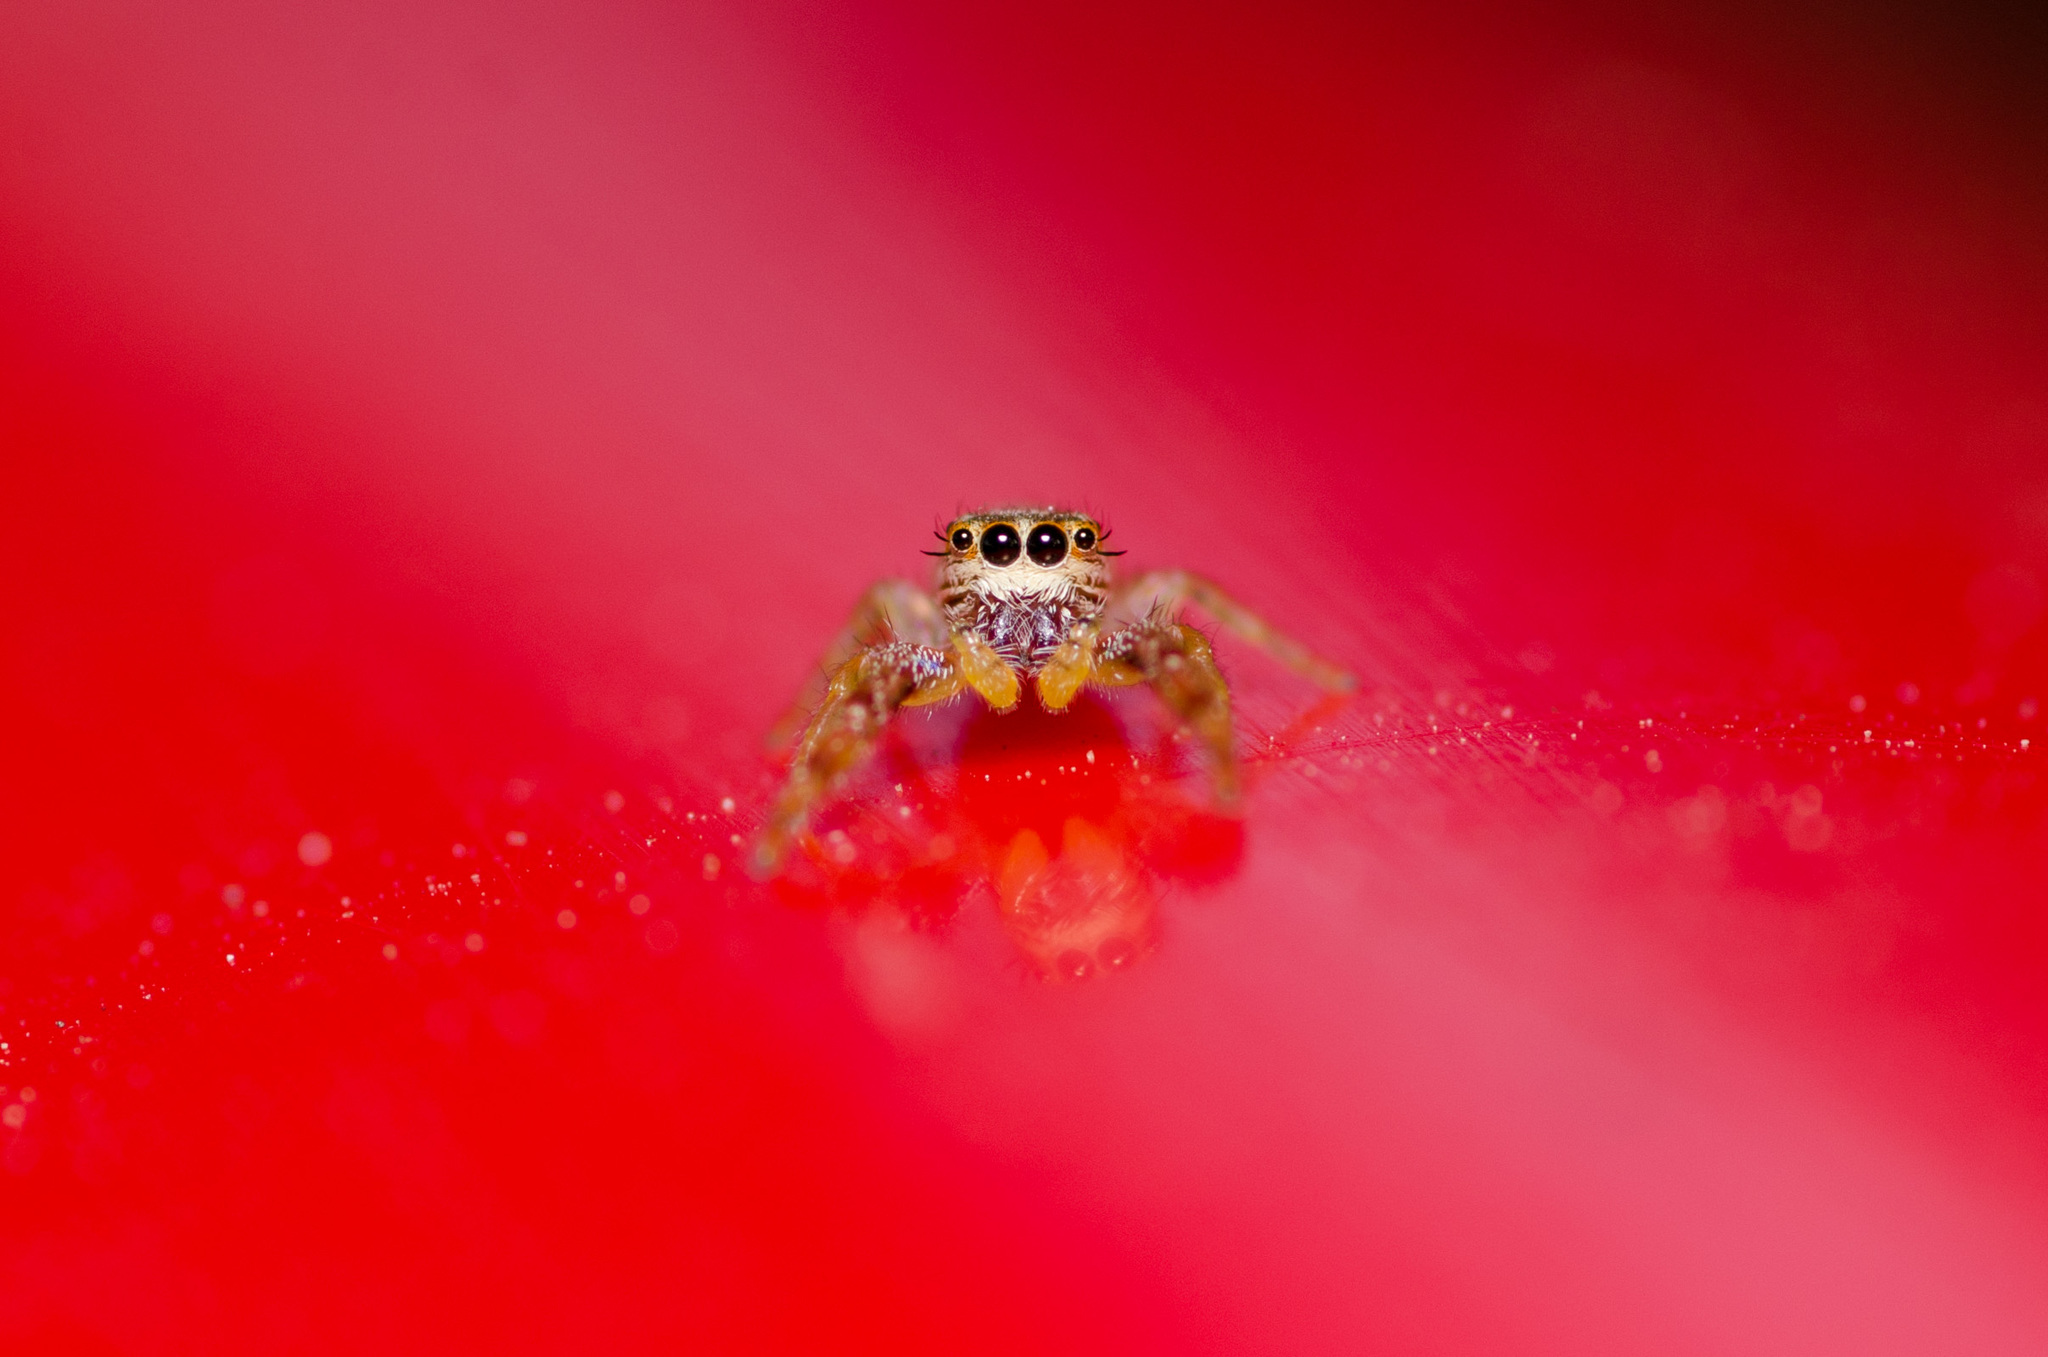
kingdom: Animalia
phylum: Arthropoda
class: Arachnida
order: Araneae
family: Salticidae
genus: Hentzia
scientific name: Hentzia
